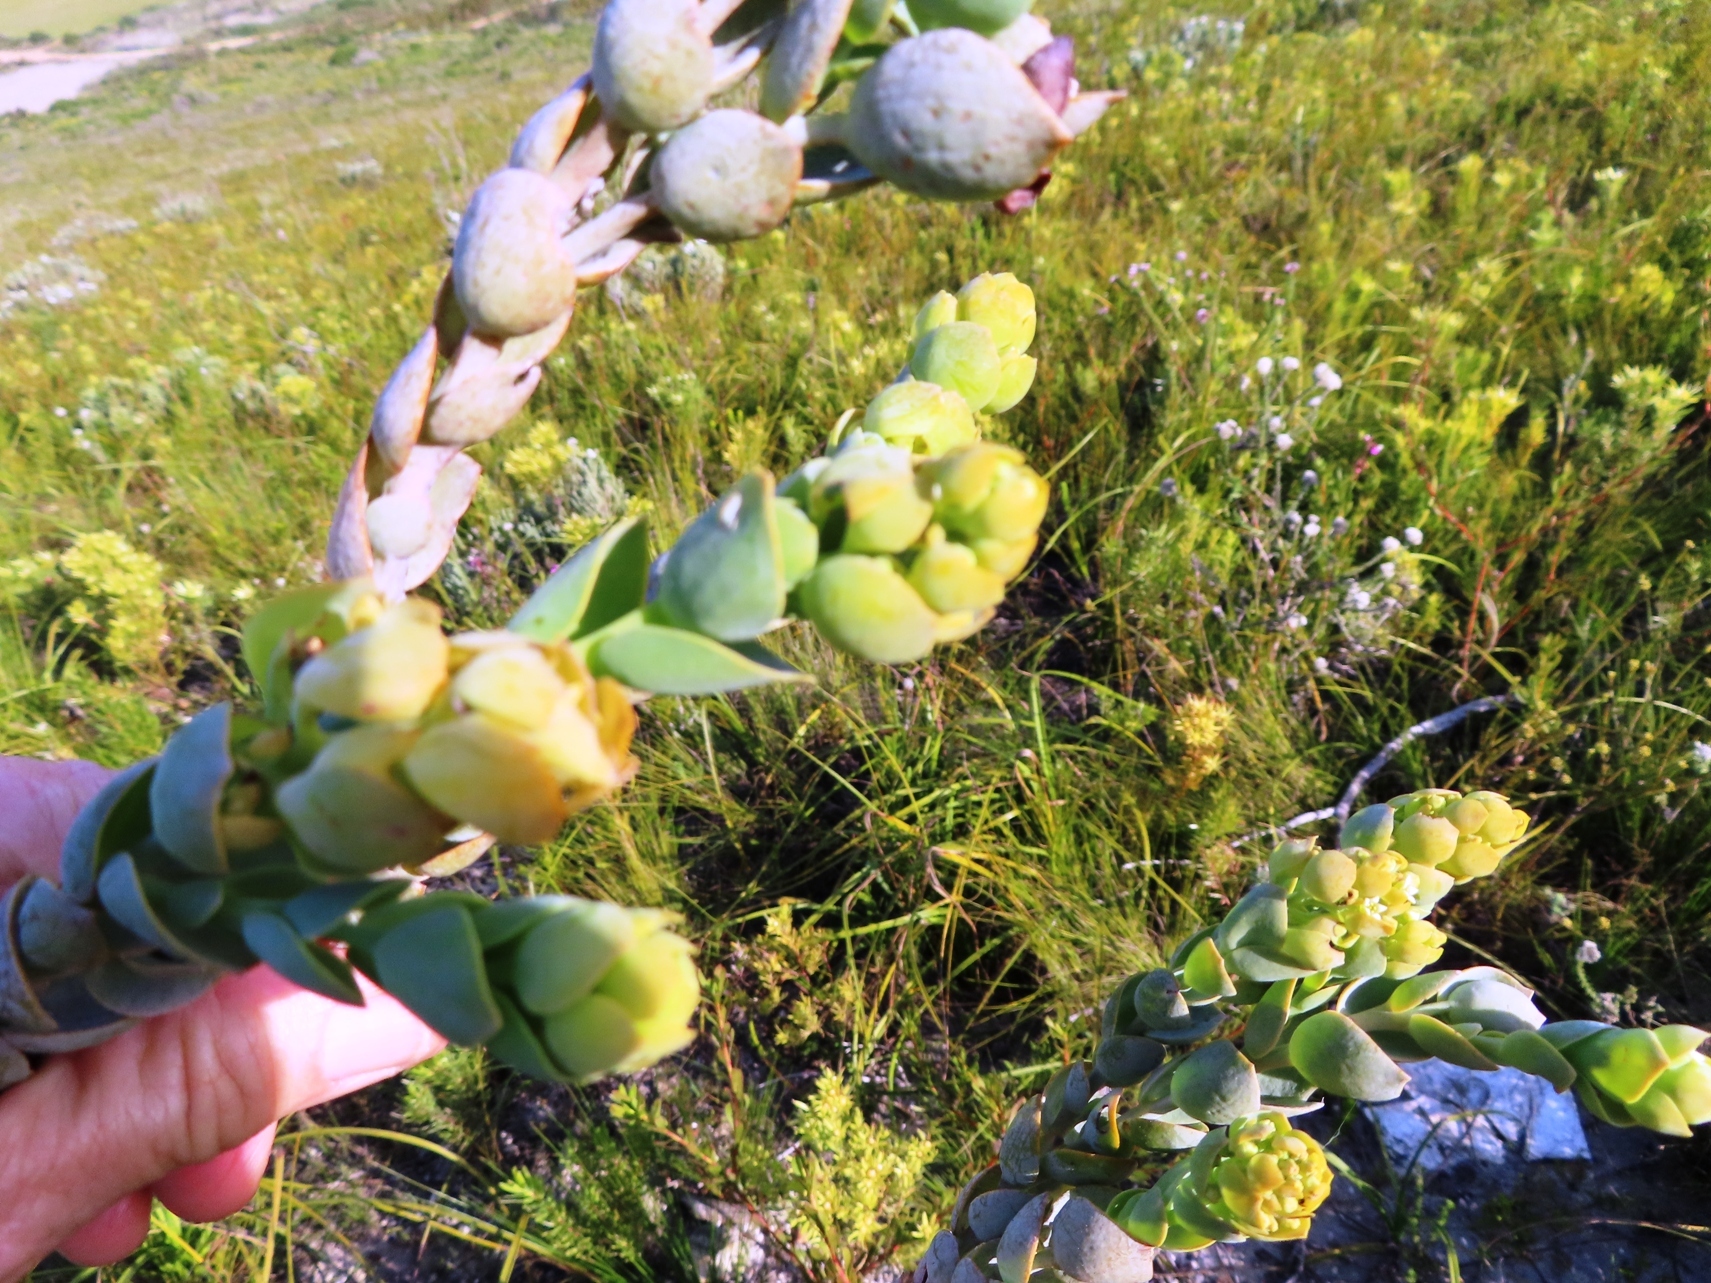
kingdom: Plantae
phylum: Tracheophyta
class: Magnoliopsida
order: Santalales
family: Thesiaceae
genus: Thesium
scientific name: Thesium euphorbioides
